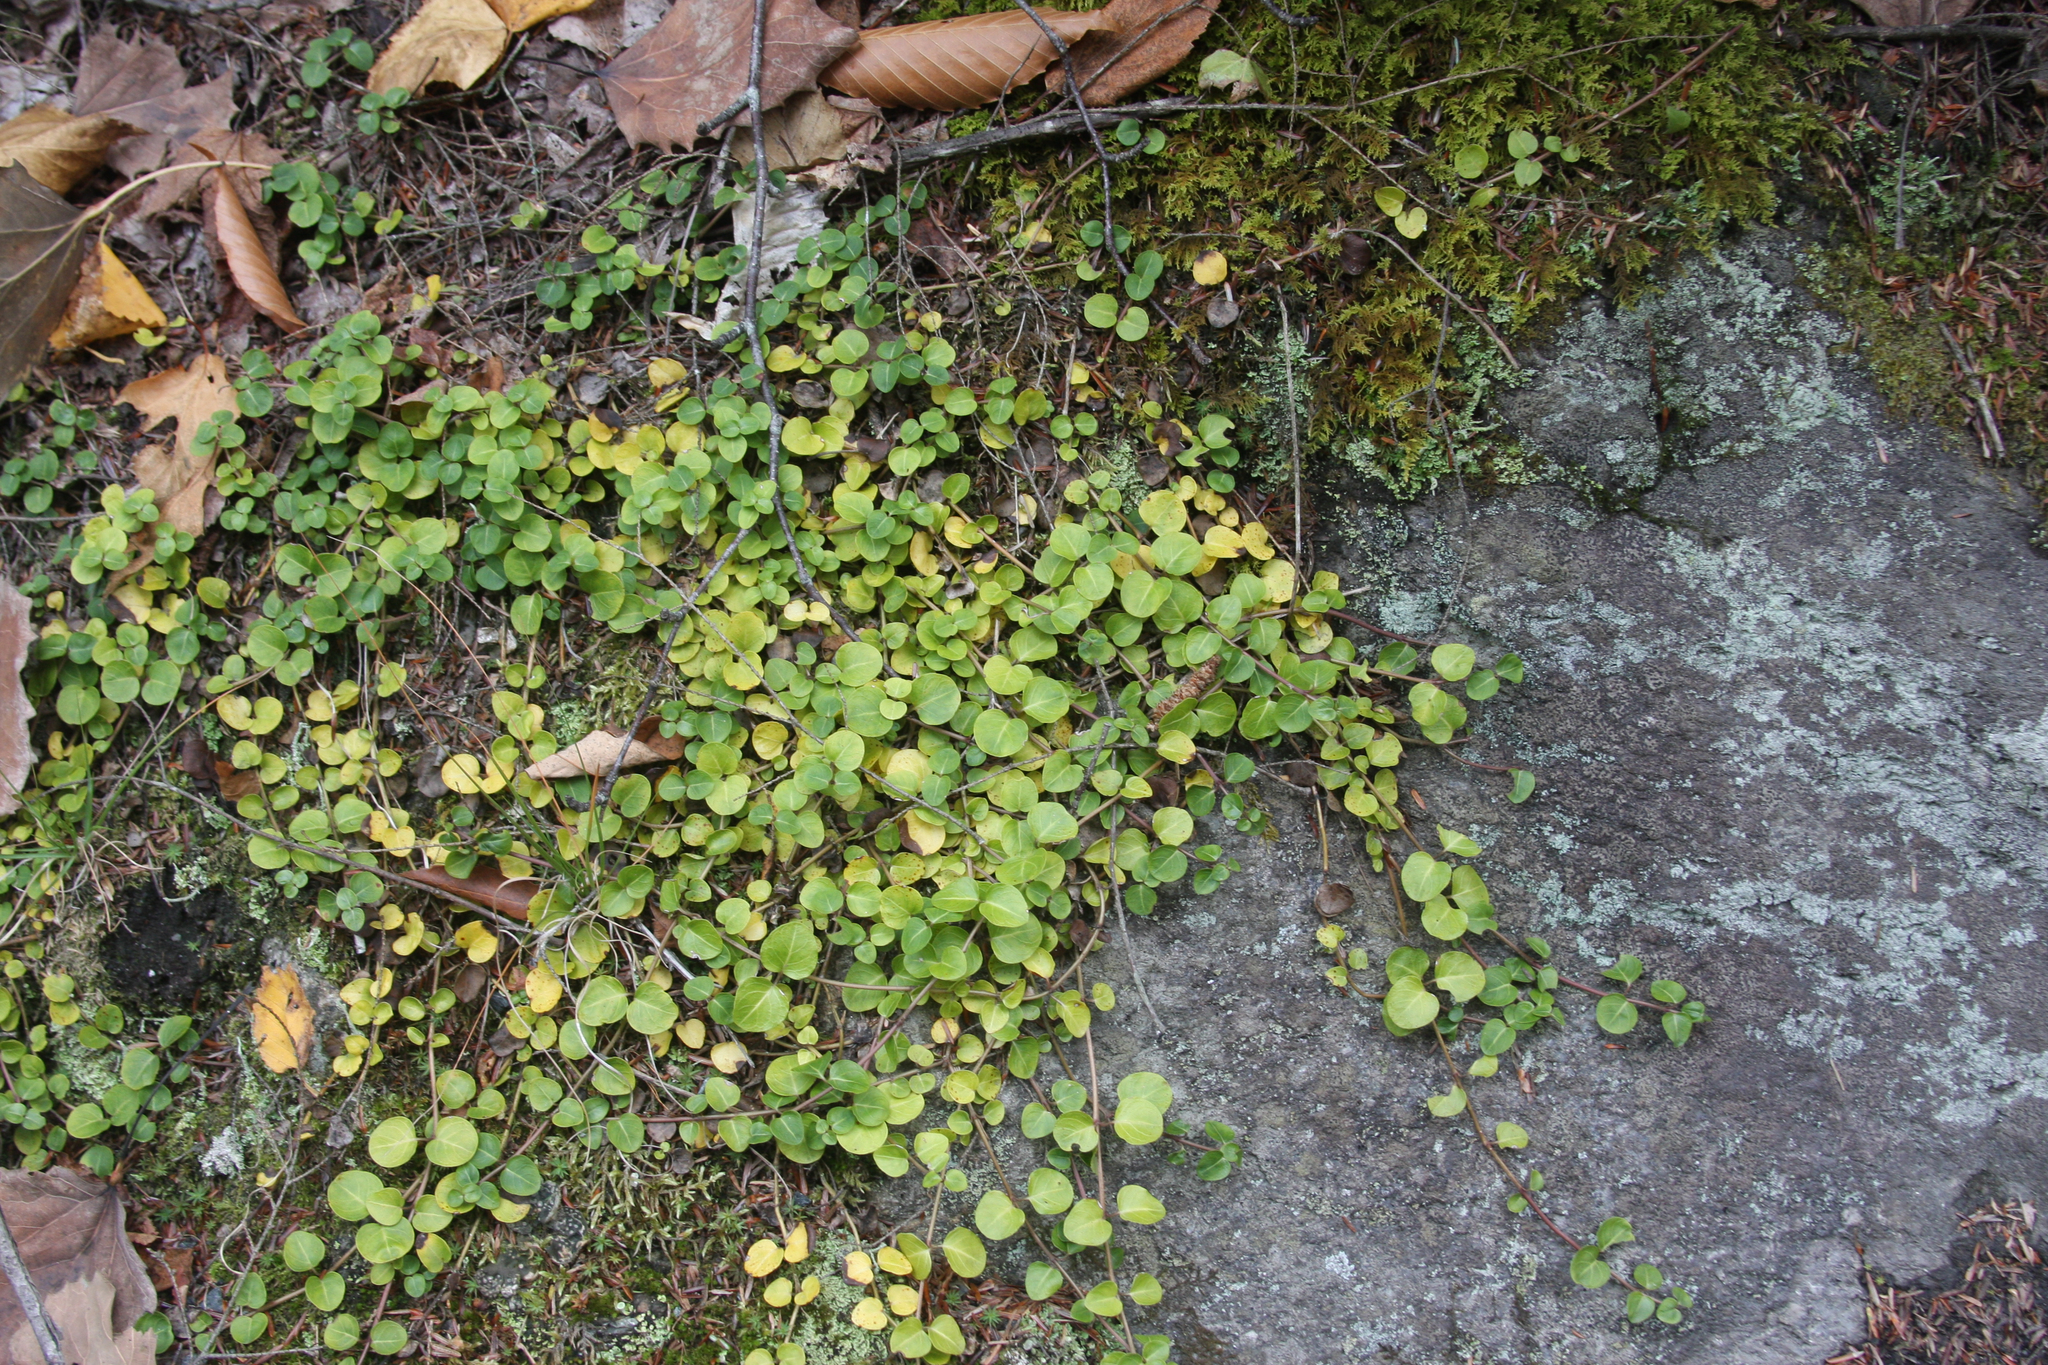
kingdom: Plantae
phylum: Tracheophyta
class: Magnoliopsida
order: Gentianales
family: Rubiaceae
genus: Mitchella
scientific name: Mitchella repens
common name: Partridge-berry
